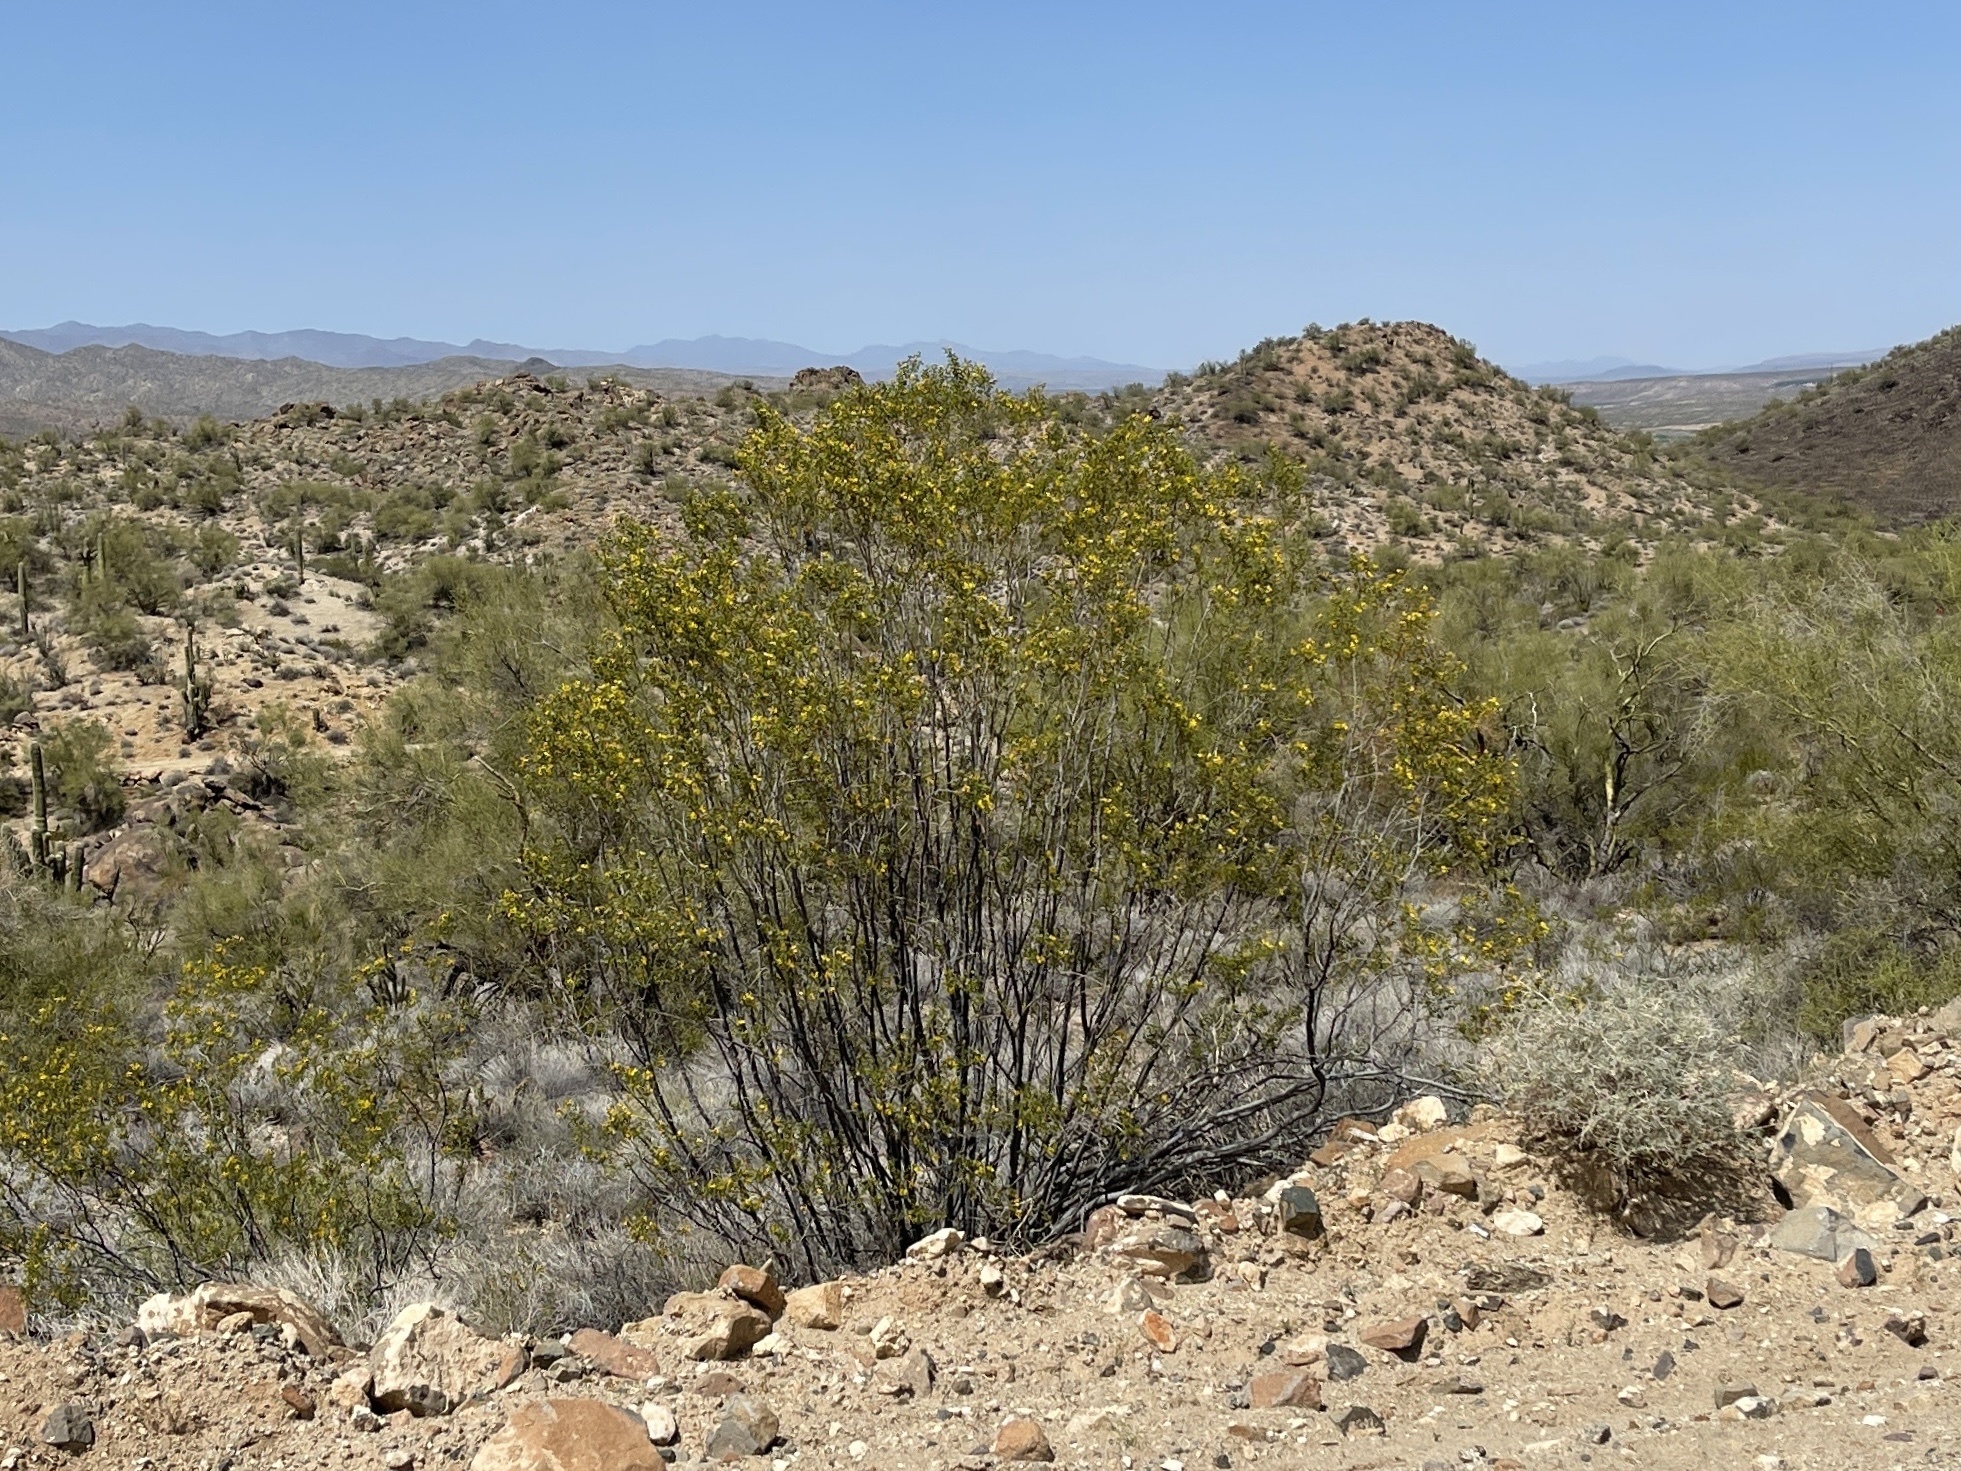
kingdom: Plantae
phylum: Tracheophyta
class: Magnoliopsida
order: Zygophyllales
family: Zygophyllaceae
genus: Larrea
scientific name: Larrea tridentata
